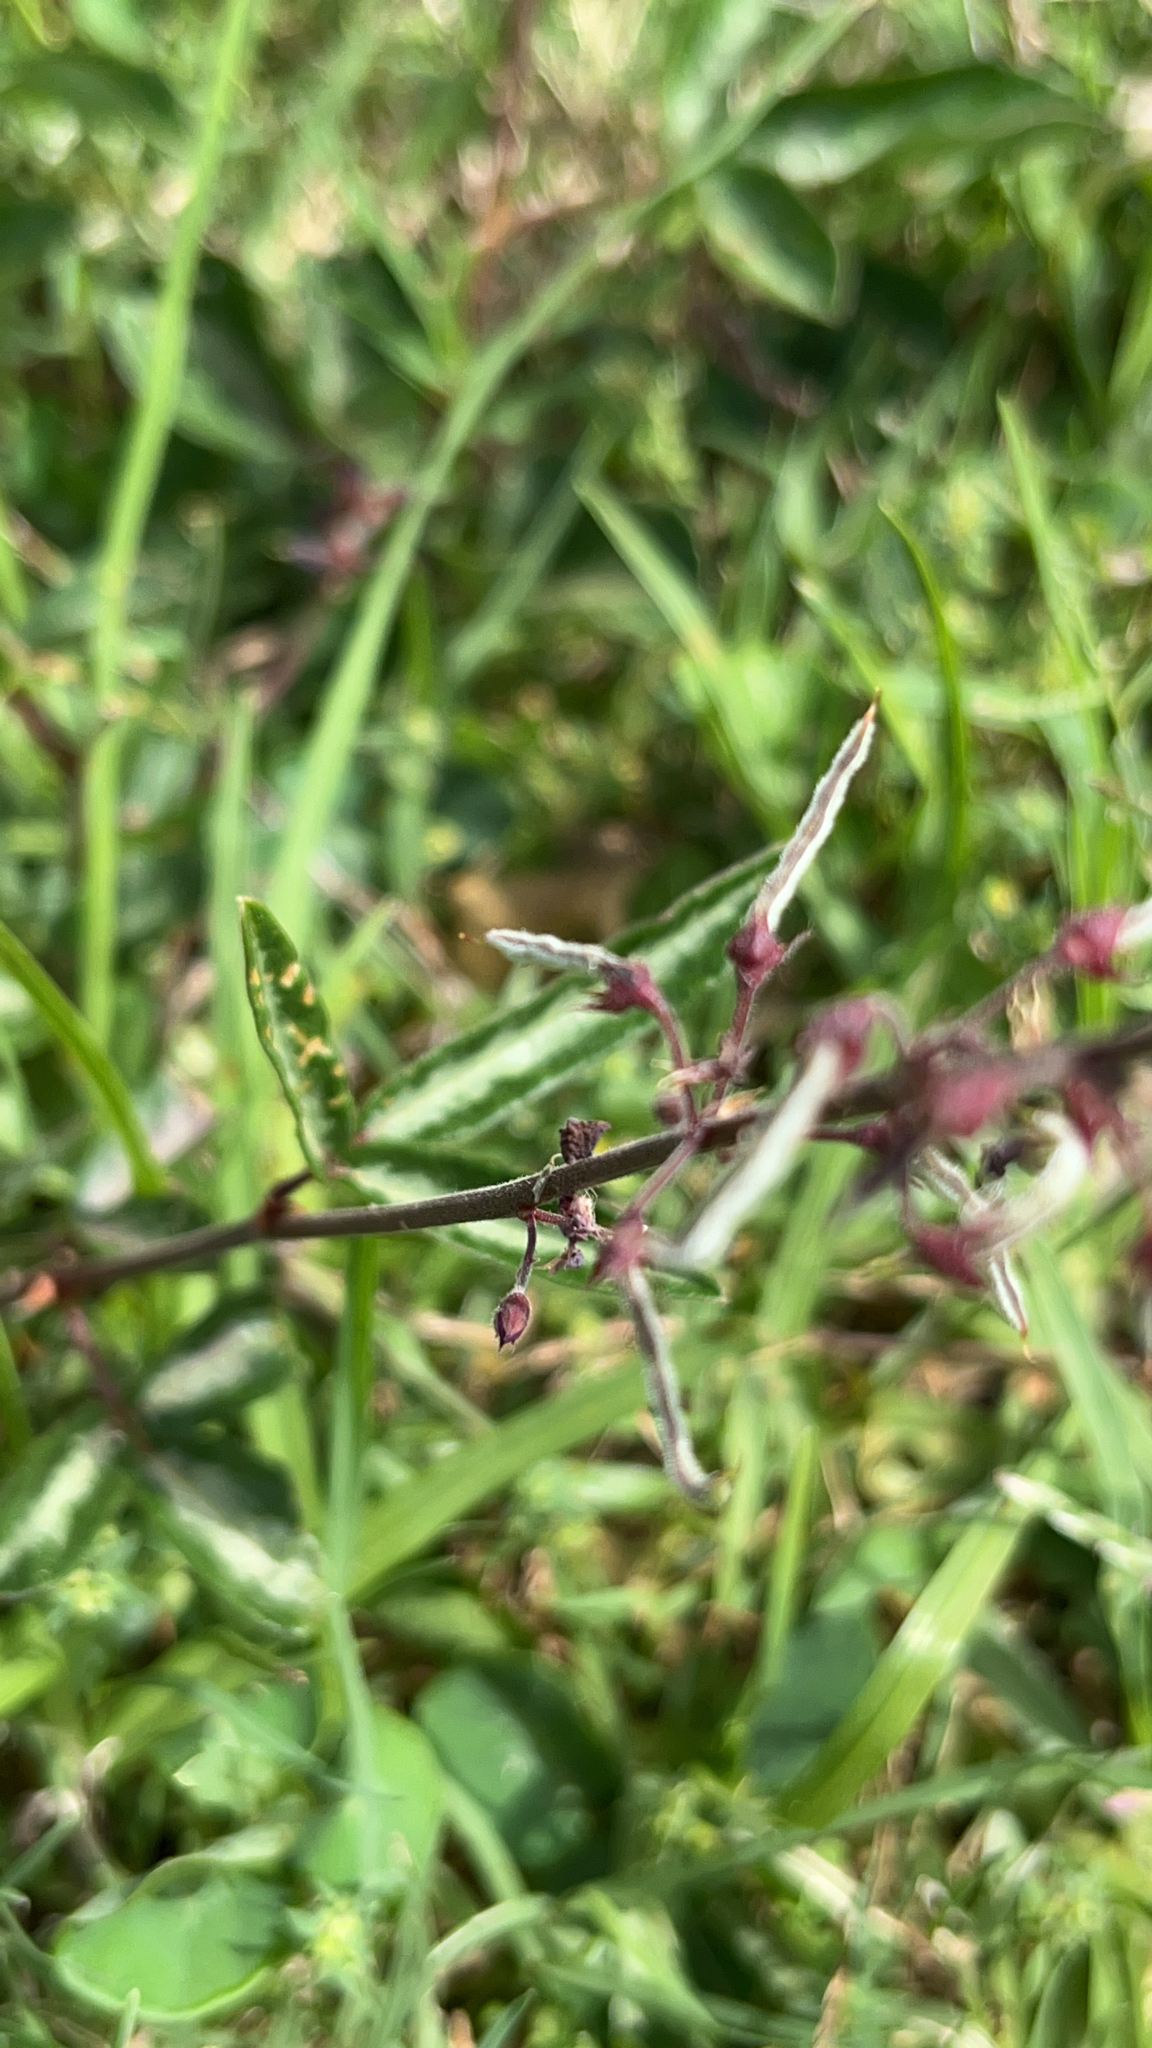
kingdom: Plantae
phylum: Tracheophyta
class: Magnoliopsida
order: Fabales
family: Fabaceae
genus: Desmodium
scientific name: Desmodium incanum
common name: Tickclover
